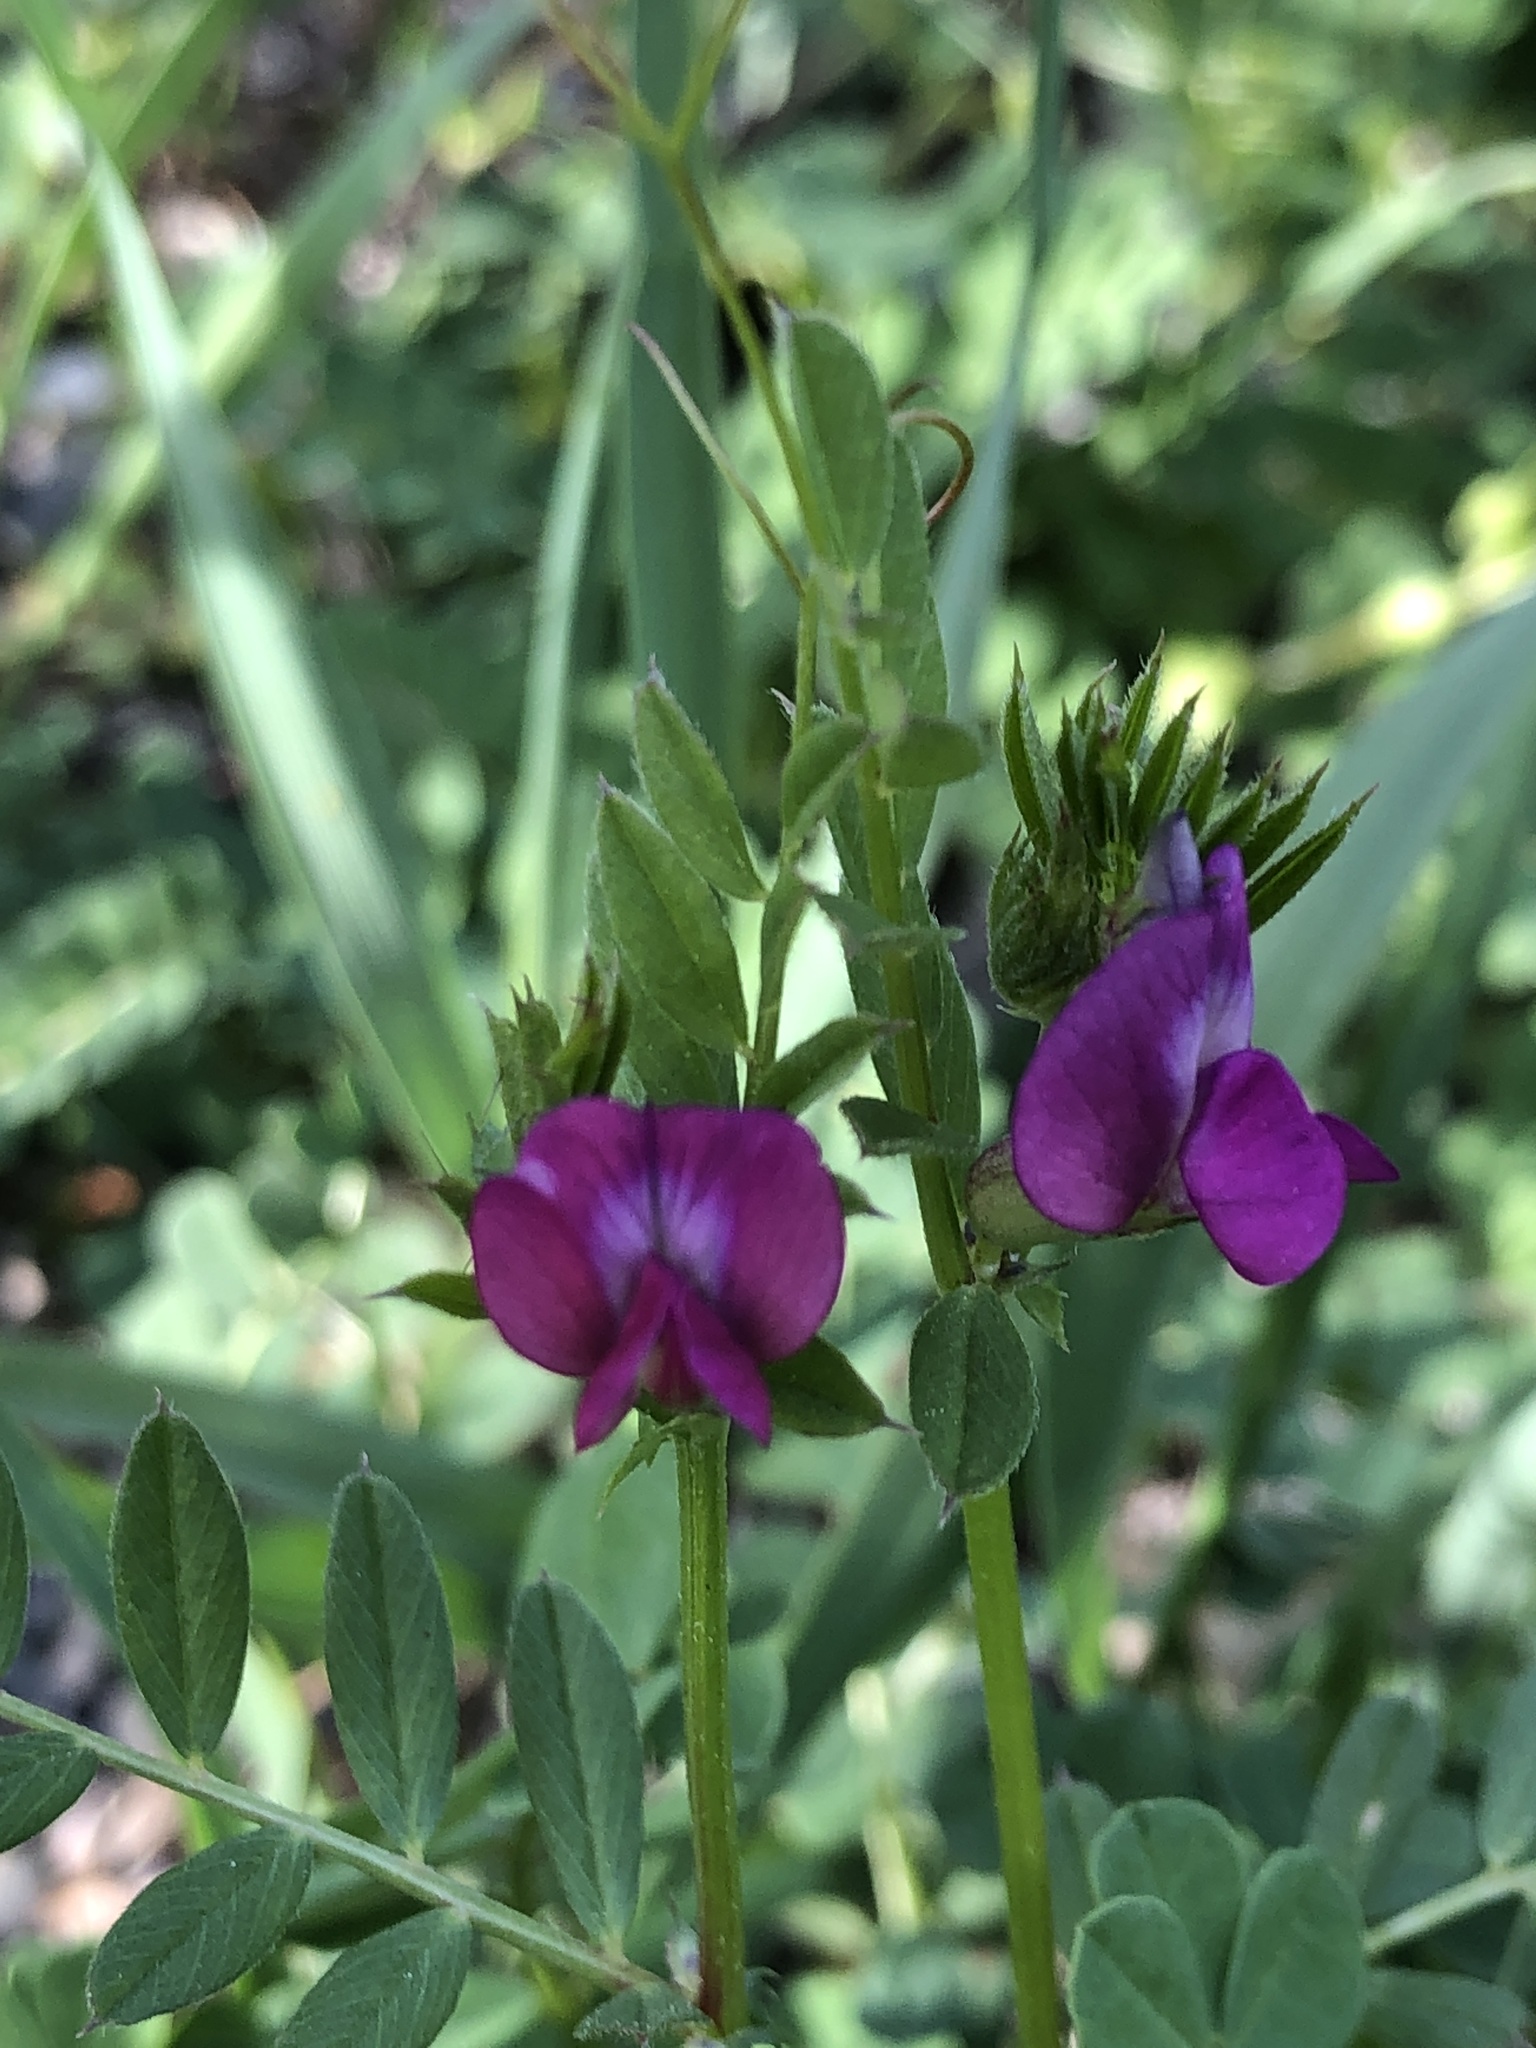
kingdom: Plantae
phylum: Tracheophyta
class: Magnoliopsida
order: Fabales
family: Fabaceae
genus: Vicia
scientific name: Vicia sativa
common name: Garden vetch
